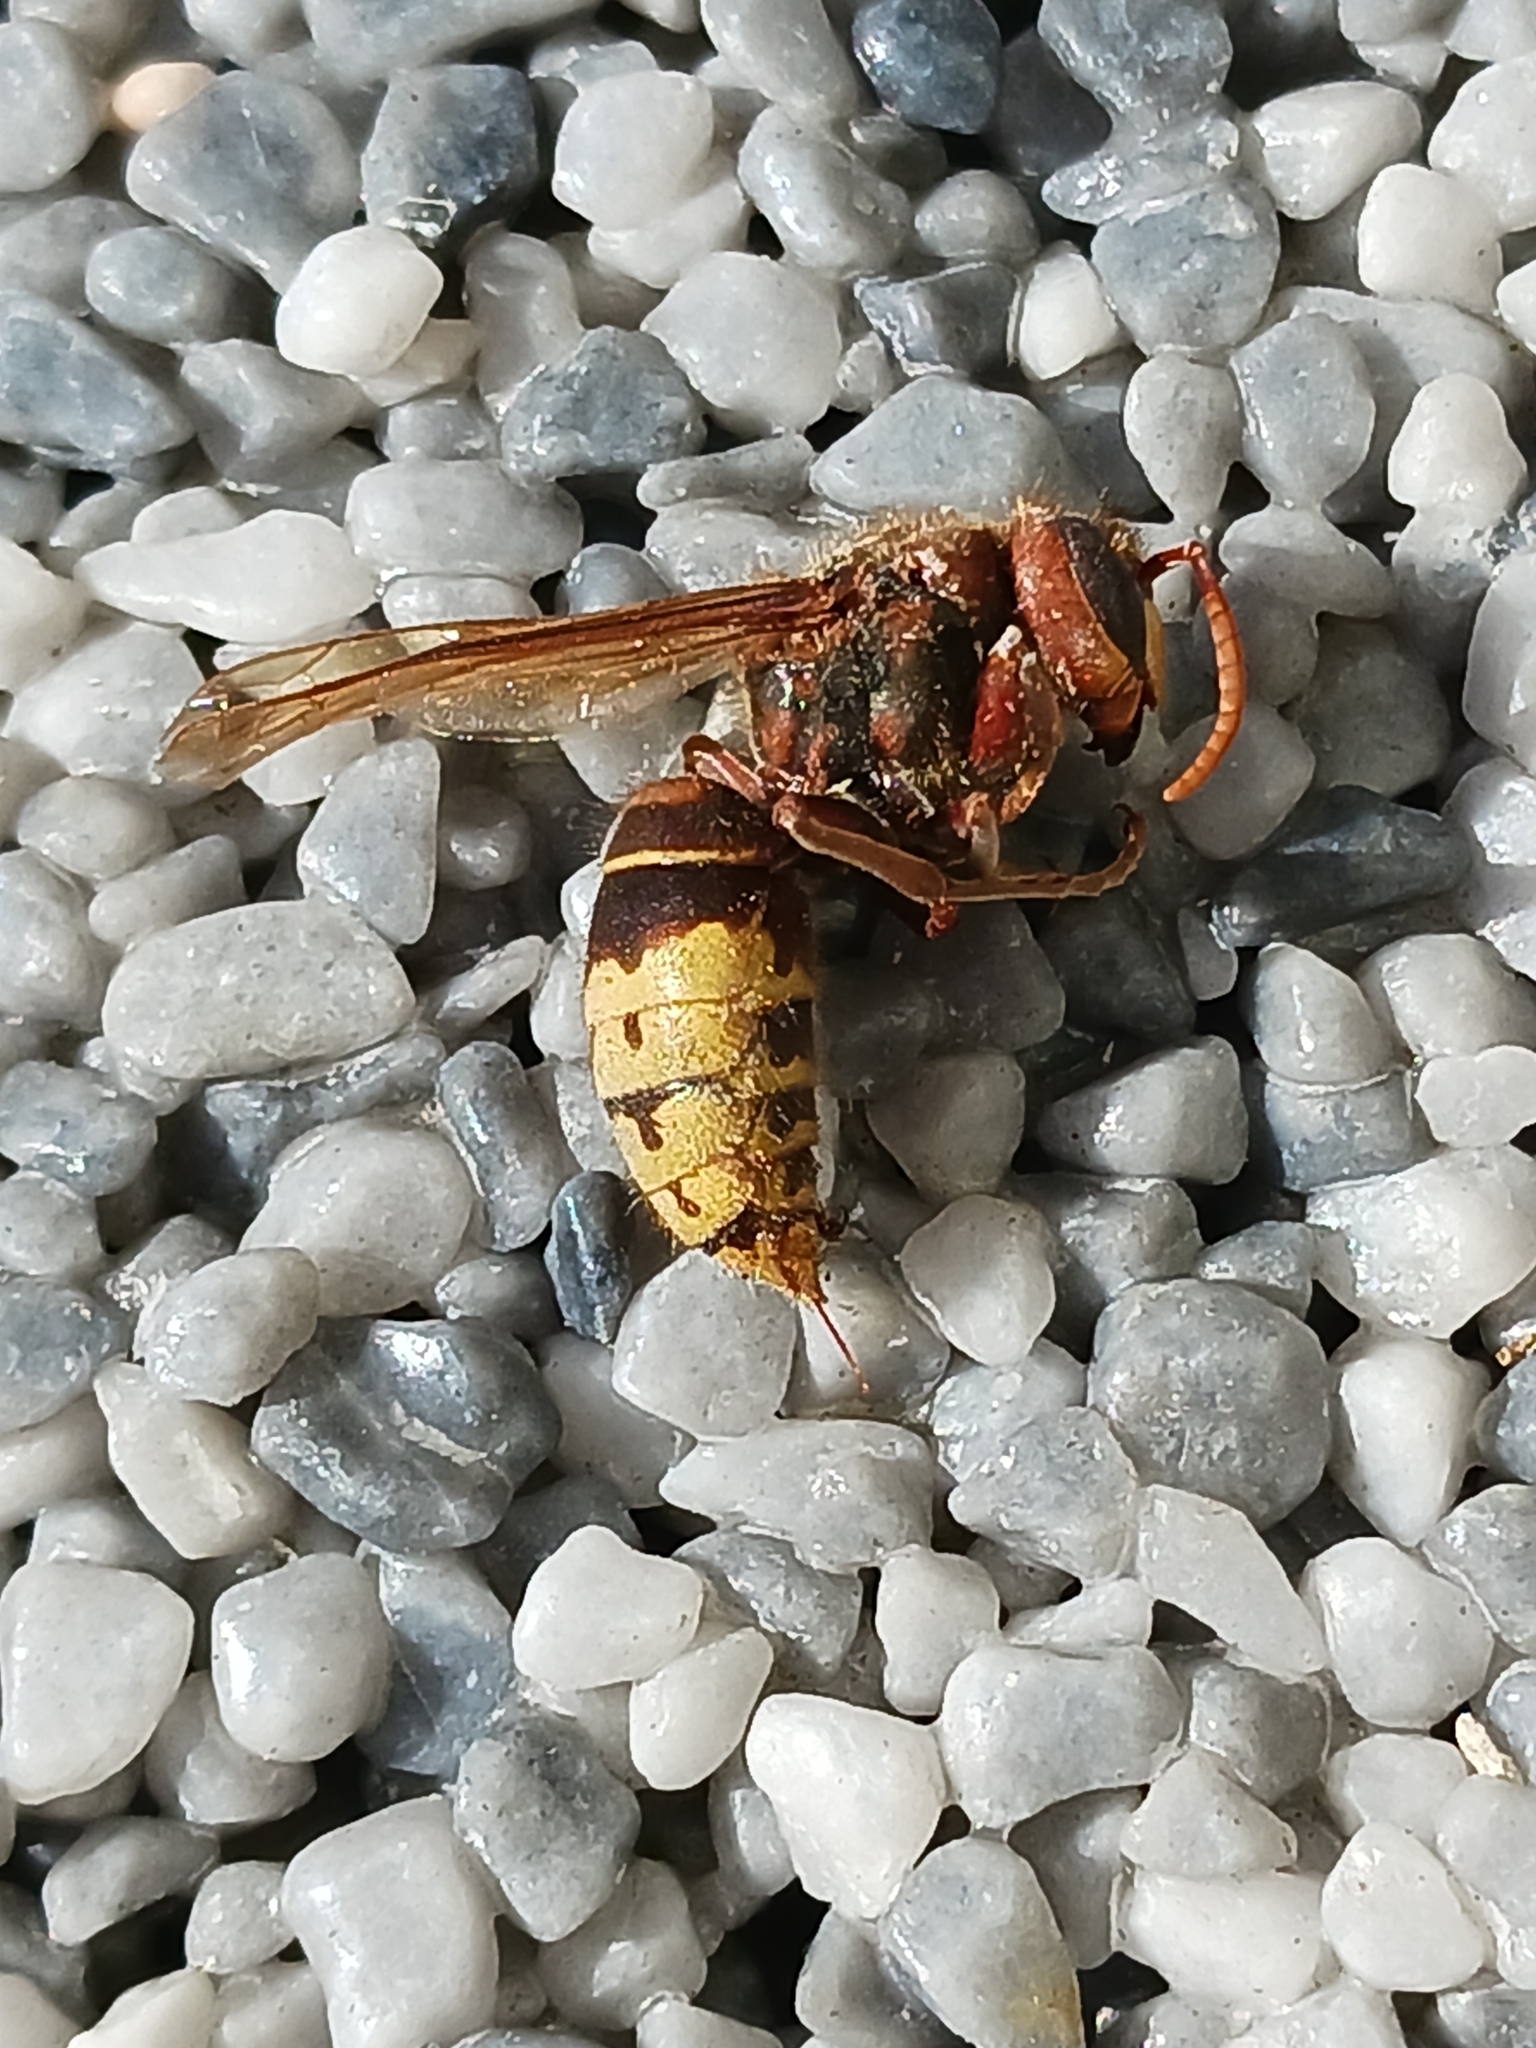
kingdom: Animalia
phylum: Arthropoda
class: Insecta
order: Hymenoptera
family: Vespidae
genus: Vespa
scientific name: Vespa crabro
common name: Hornet
